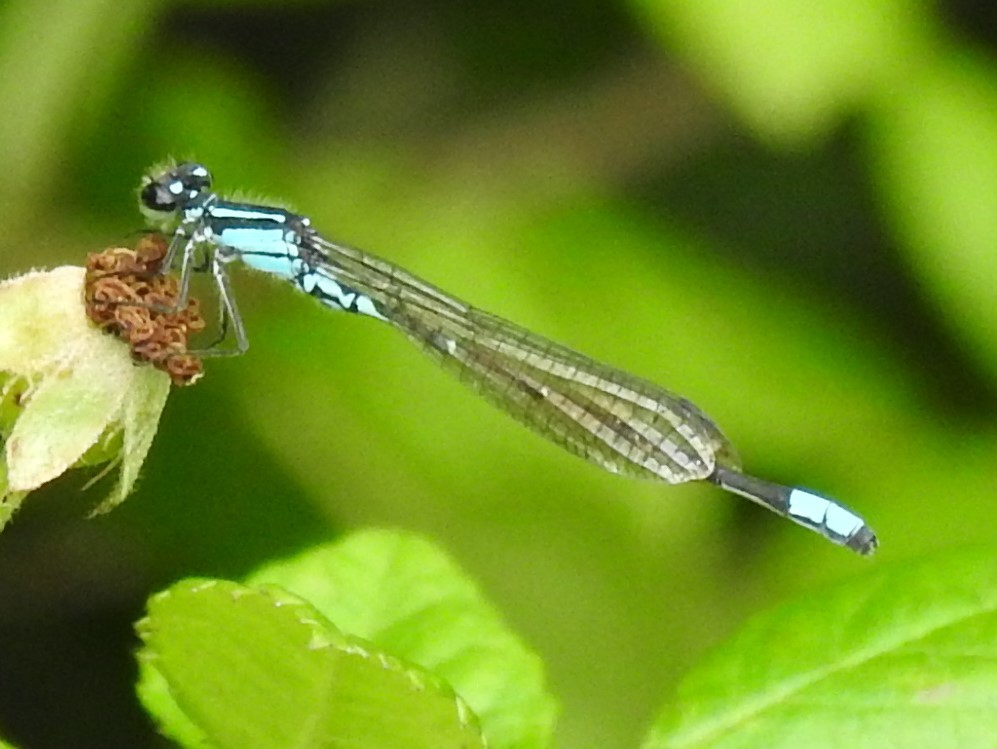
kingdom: Animalia
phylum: Arthropoda
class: Insecta
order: Odonata
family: Coenagrionidae
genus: Enallagma
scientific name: Enallagma geminatum
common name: Skimming bluet
